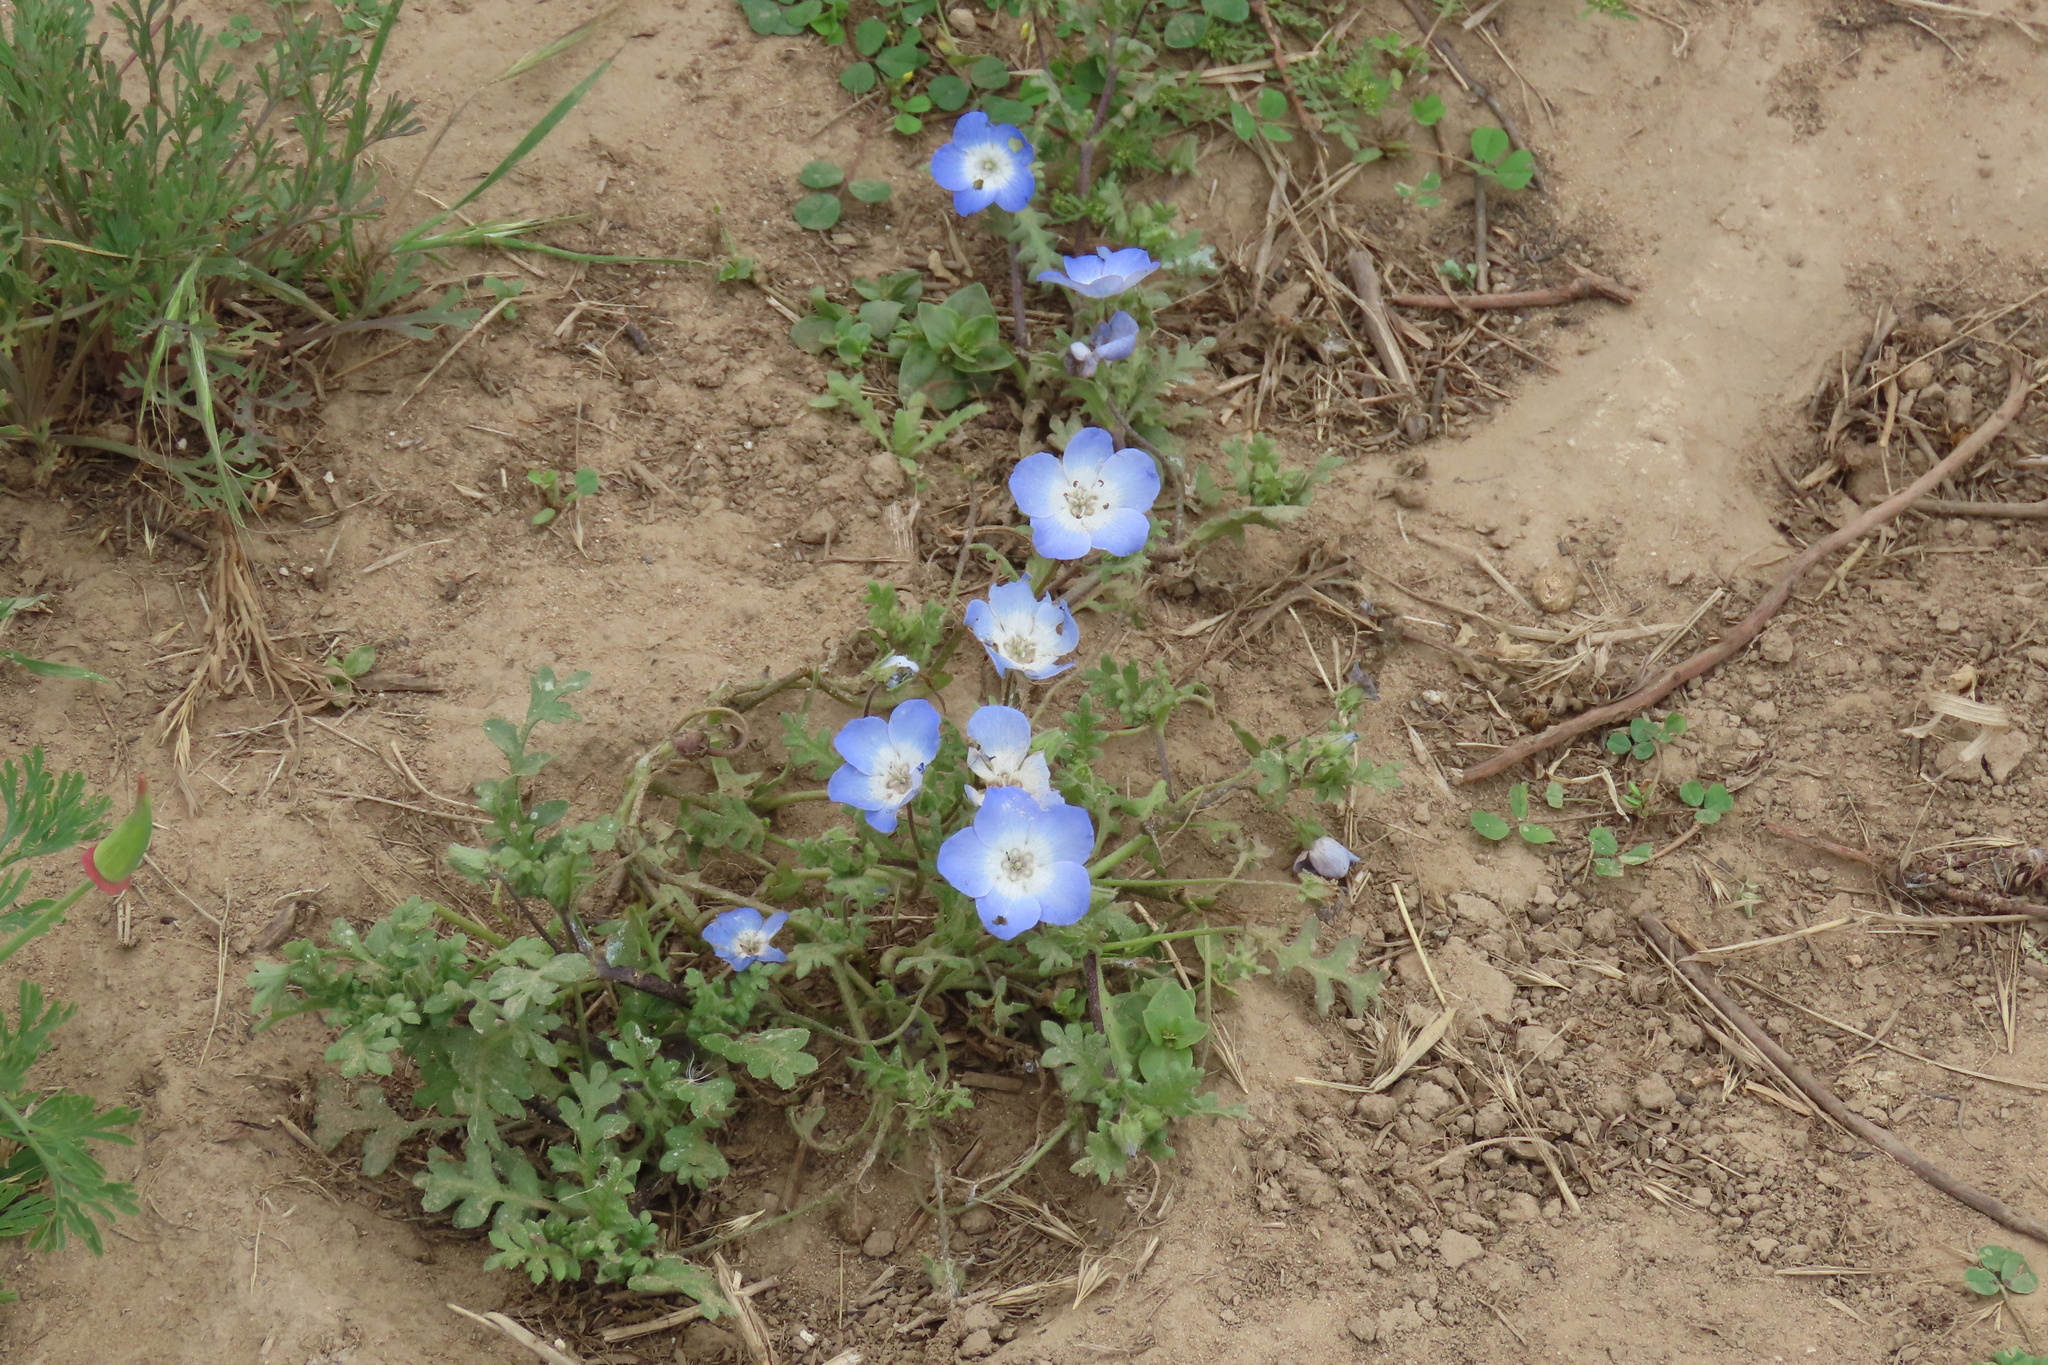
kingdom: Plantae
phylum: Tracheophyta
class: Magnoliopsida
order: Boraginales
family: Hydrophyllaceae
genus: Nemophila
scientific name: Nemophila menziesii
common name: Baby's-blue-eyes
